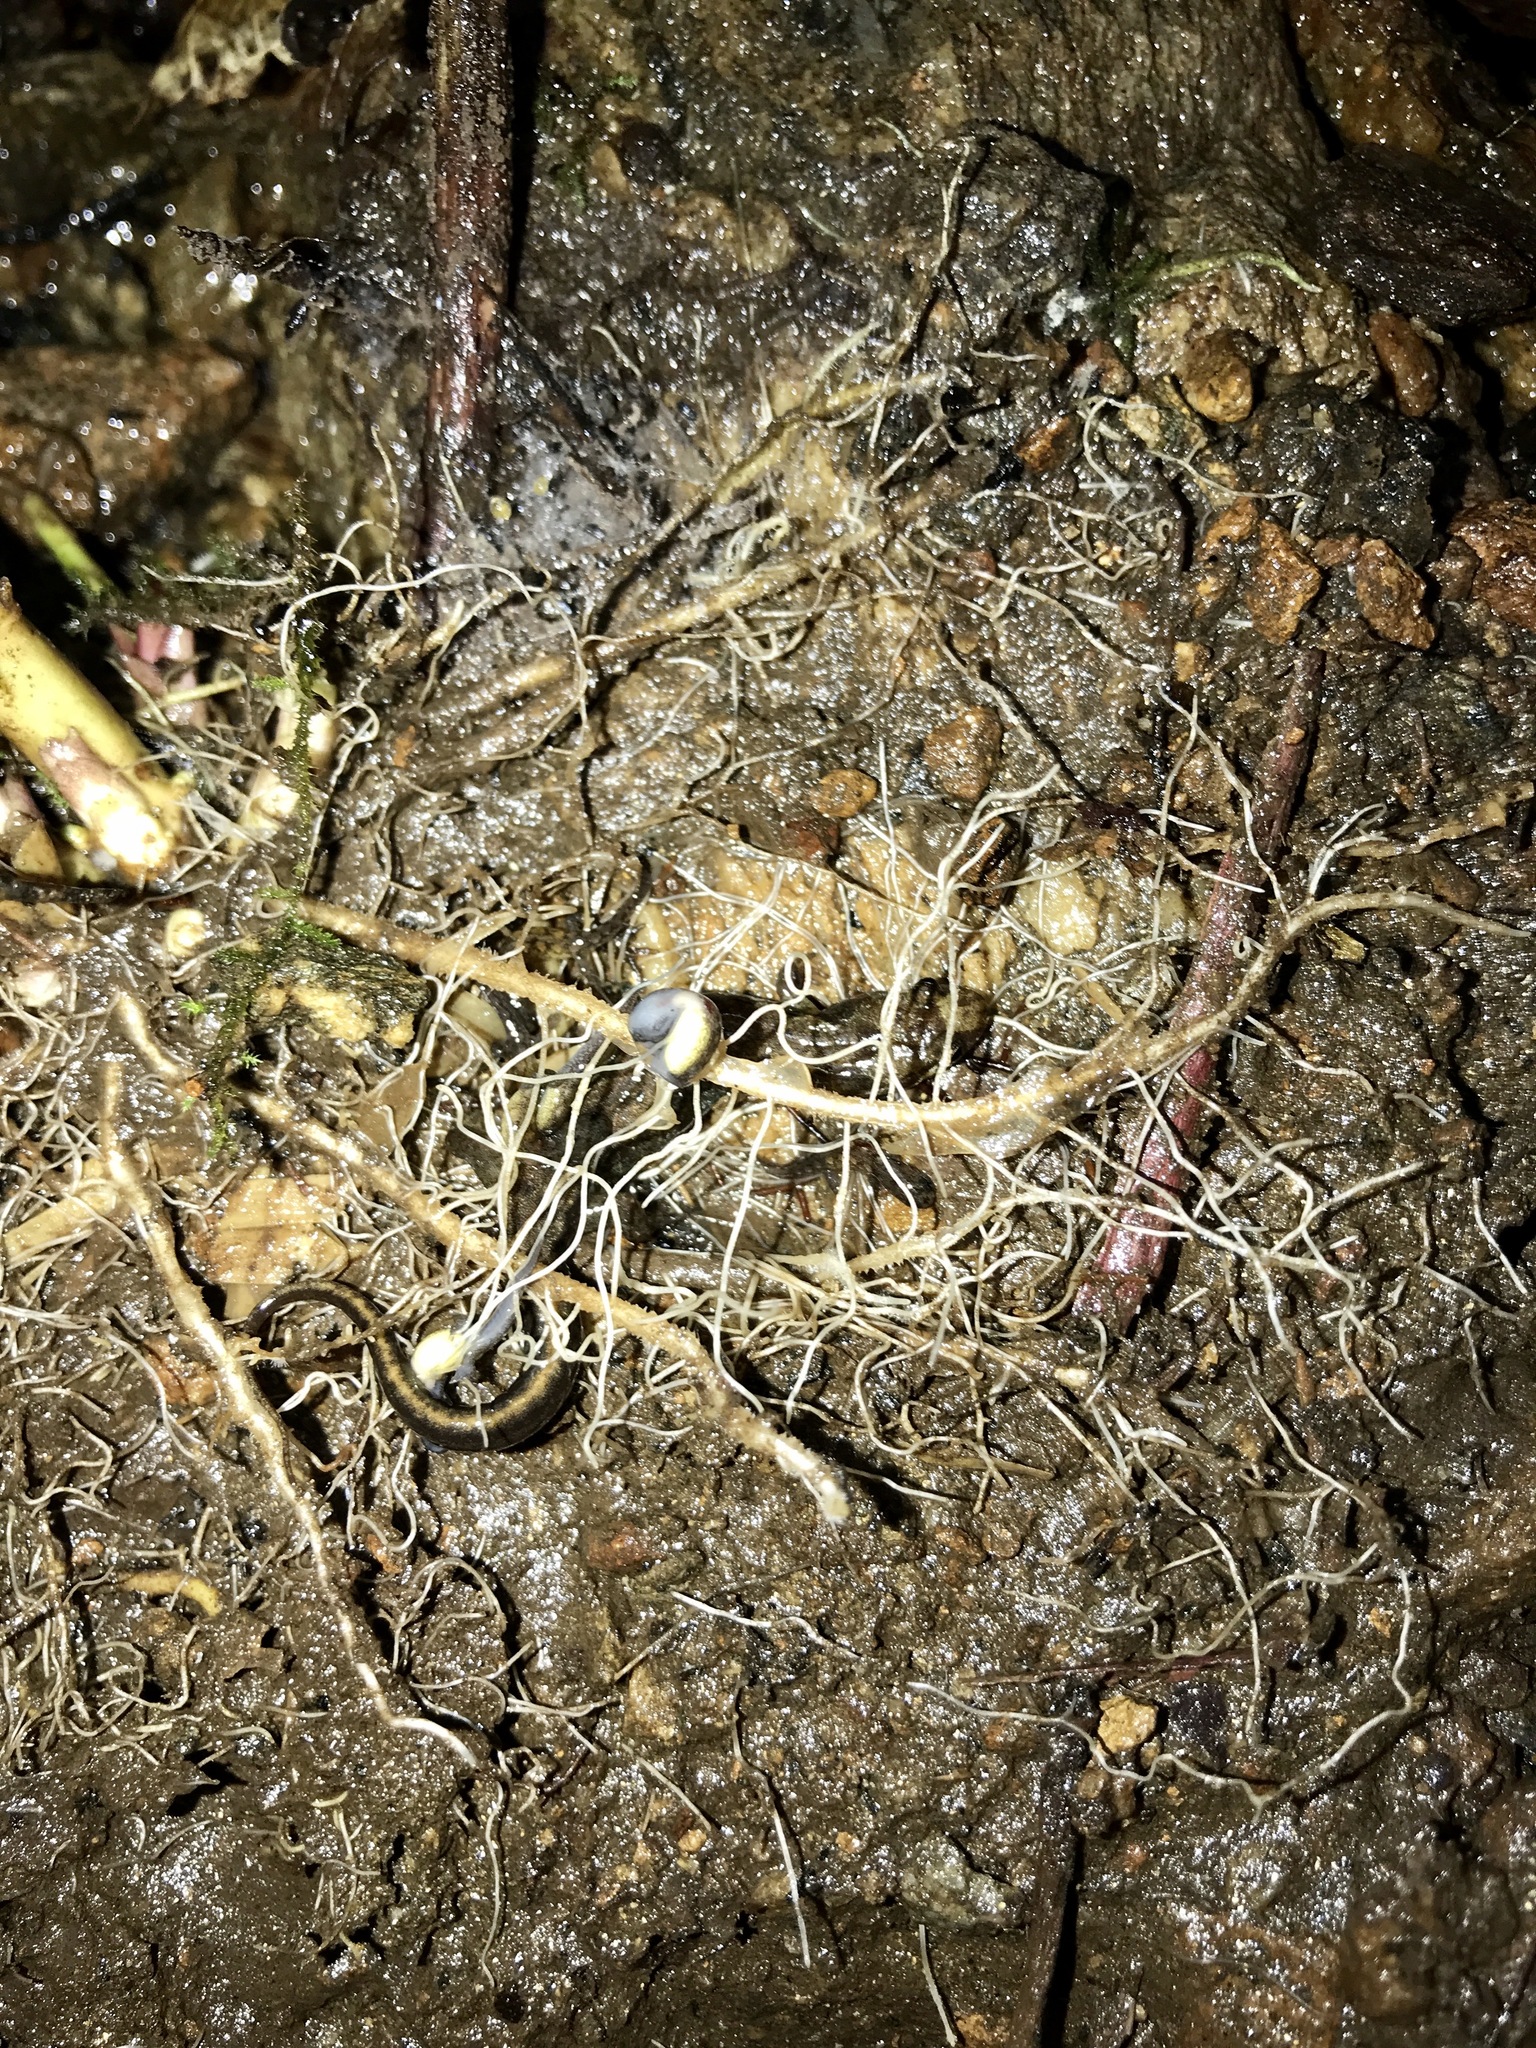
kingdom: Animalia
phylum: Chordata
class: Amphibia
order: Caudata
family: Plethodontidae
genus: Desmognathus
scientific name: Desmognathus ocoee
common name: Ocoee salamander
